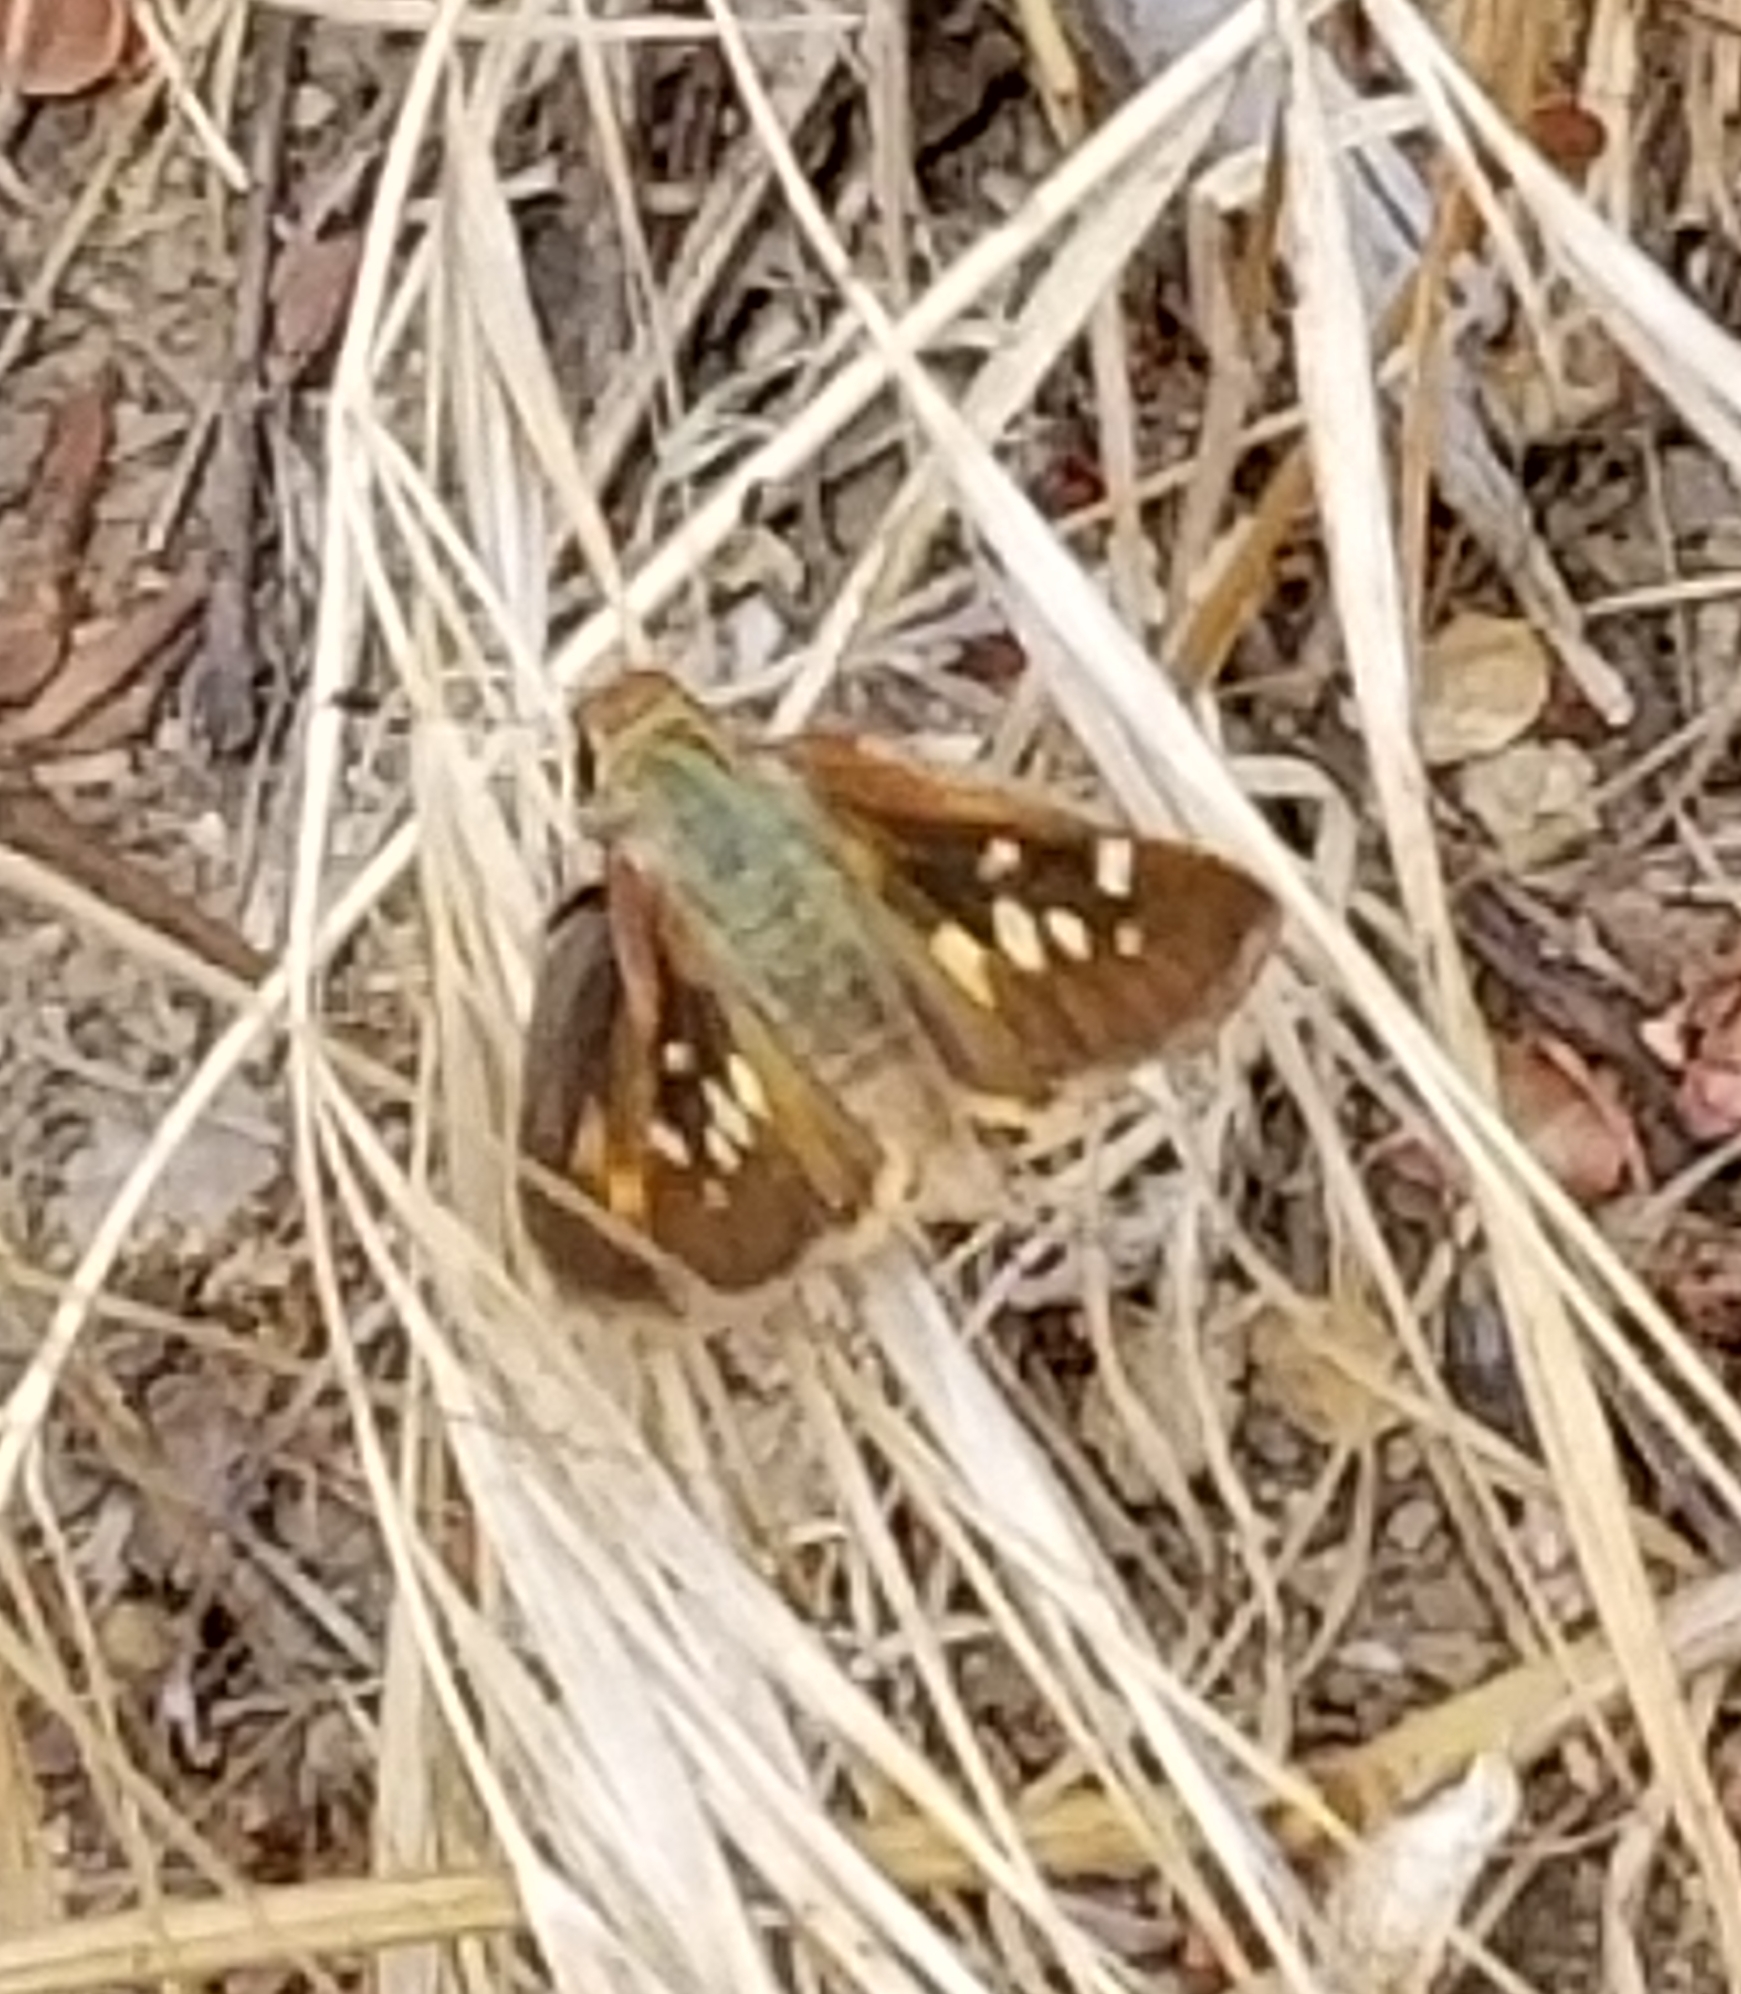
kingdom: Animalia
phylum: Arthropoda
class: Insecta
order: Lepidoptera
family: Hesperiidae
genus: Lon
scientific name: Lon melane
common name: Umber skipper
